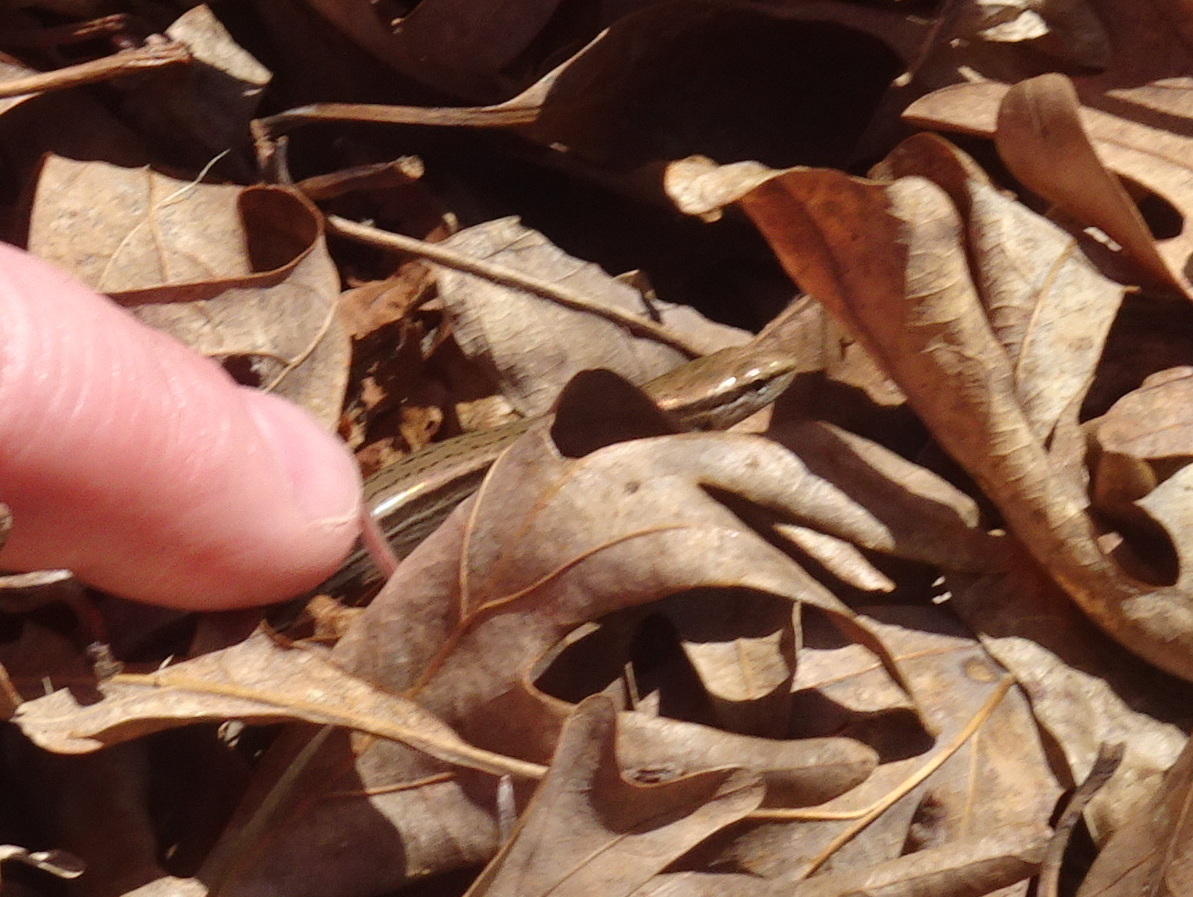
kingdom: Animalia
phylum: Chordata
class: Squamata
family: Scincidae
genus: Scincella
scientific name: Scincella lateralis
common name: Ground skink
